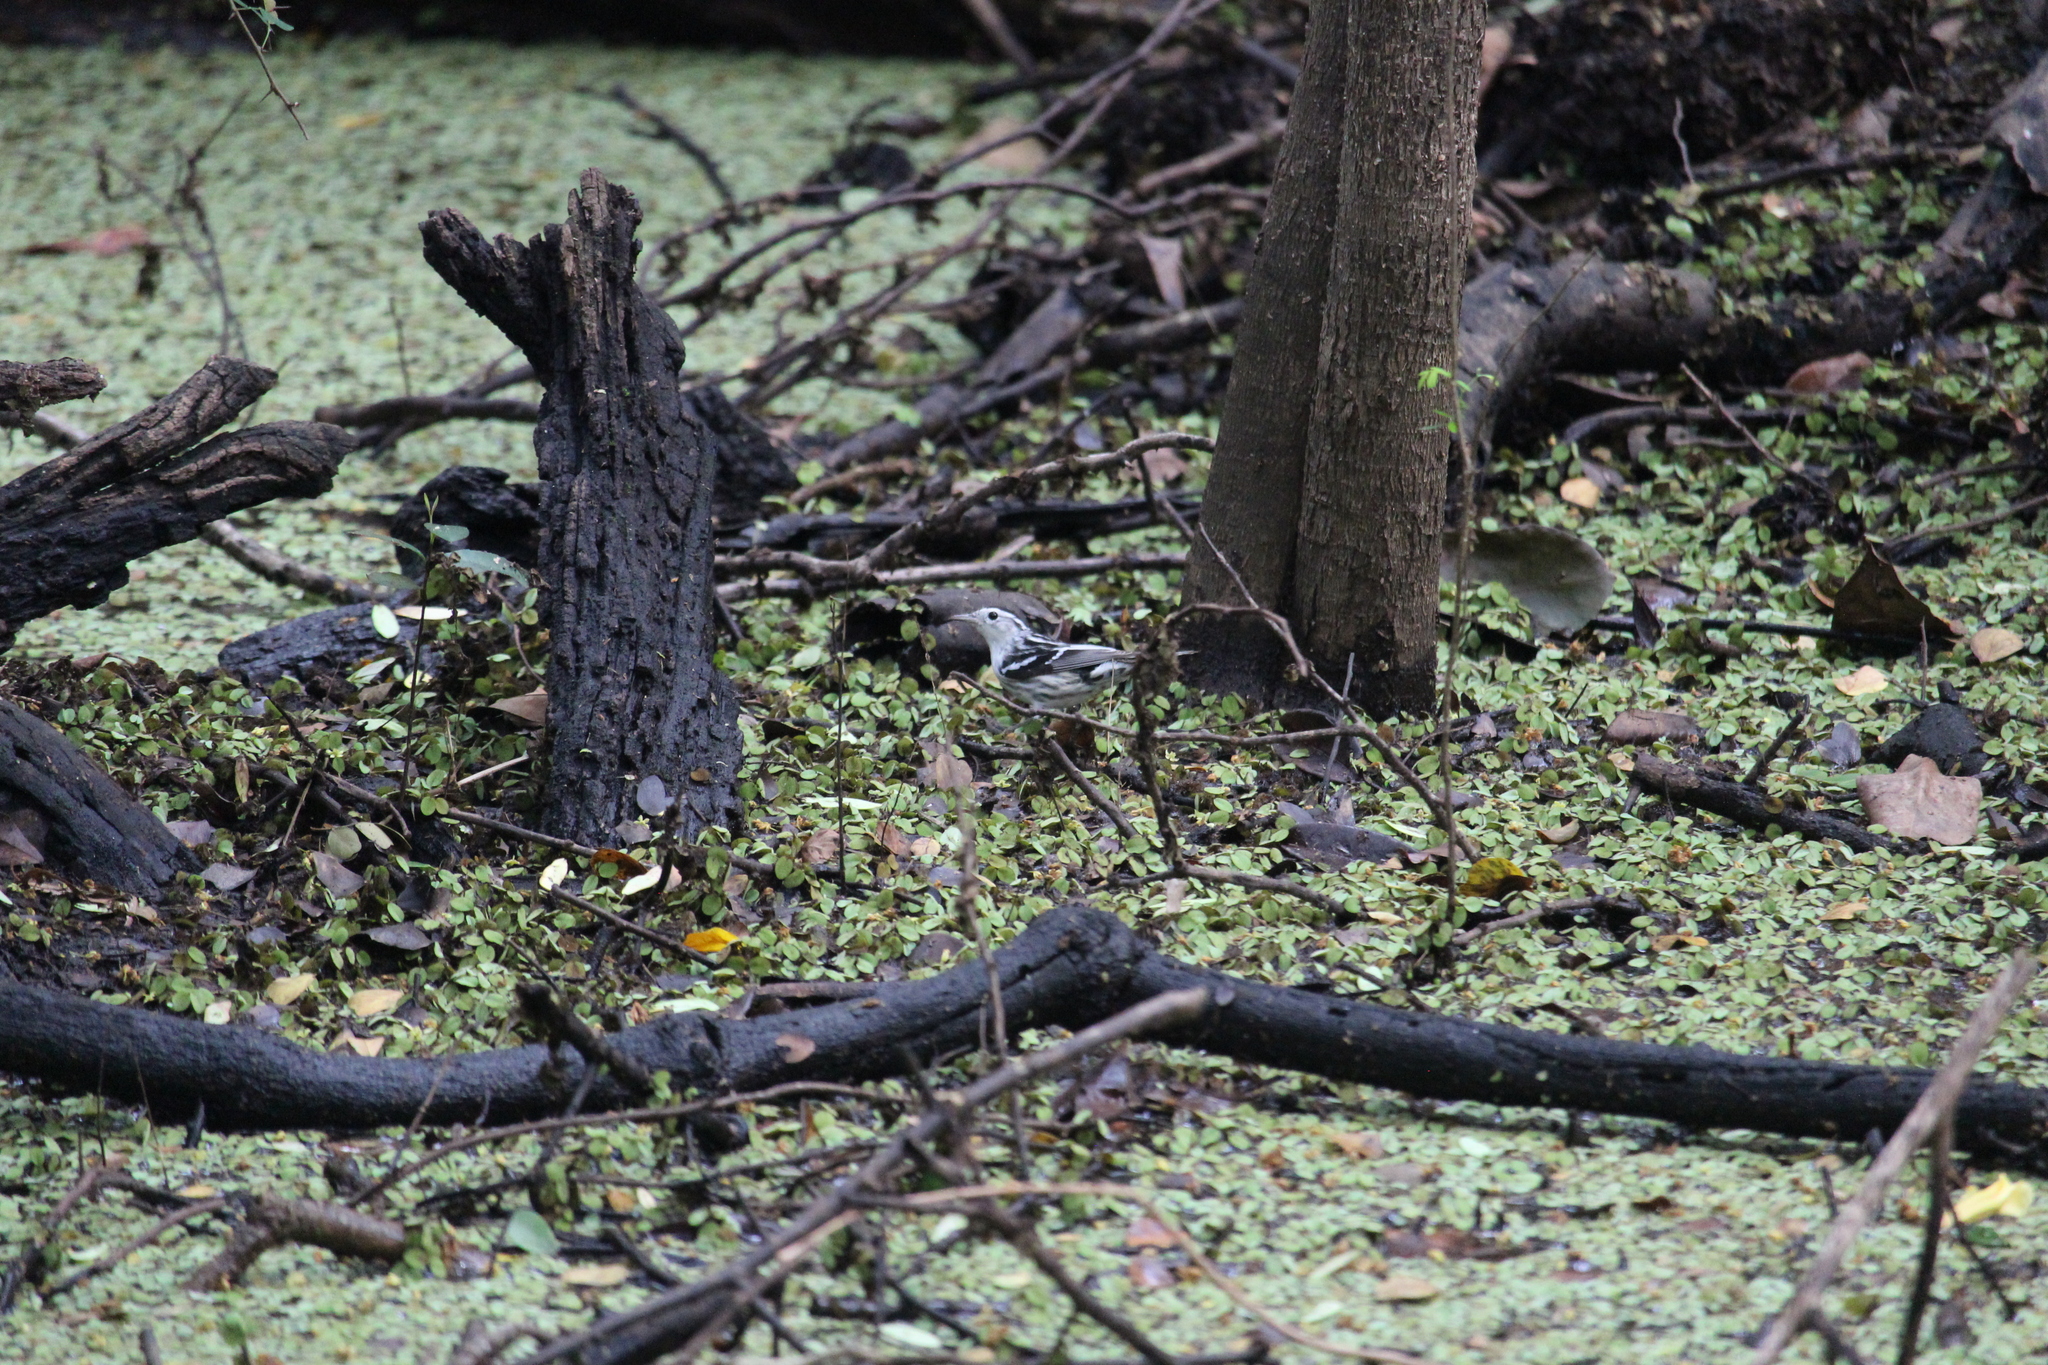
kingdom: Animalia
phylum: Chordata
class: Aves
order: Passeriformes
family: Parulidae
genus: Mniotilta
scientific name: Mniotilta varia
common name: Black-and-white warbler
